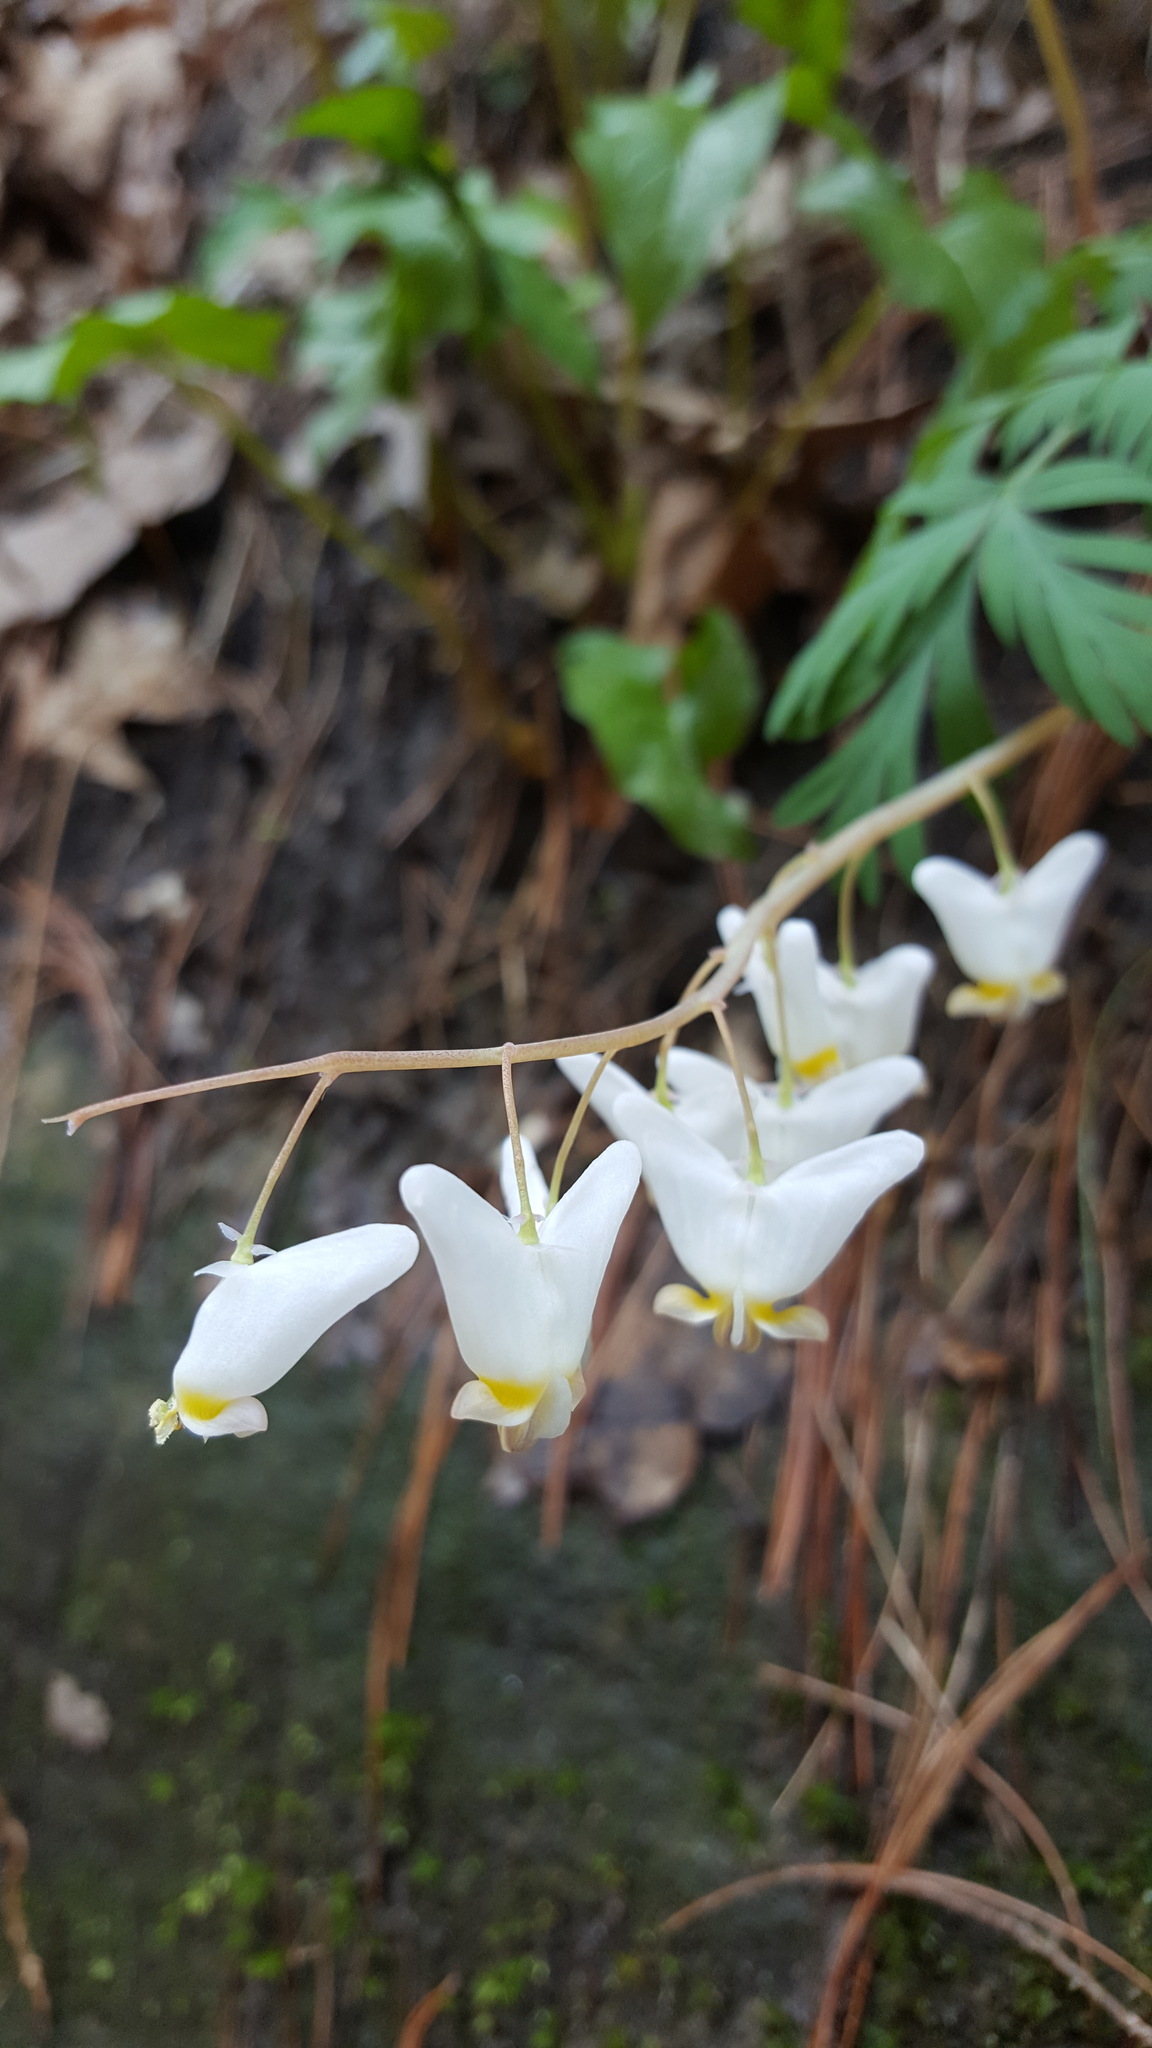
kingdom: Plantae
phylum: Tracheophyta
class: Magnoliopsida
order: Ranunculales
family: Papaveraceae
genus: Dicentra
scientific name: Dicentra cucullaria
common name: Dutchman's breeches
